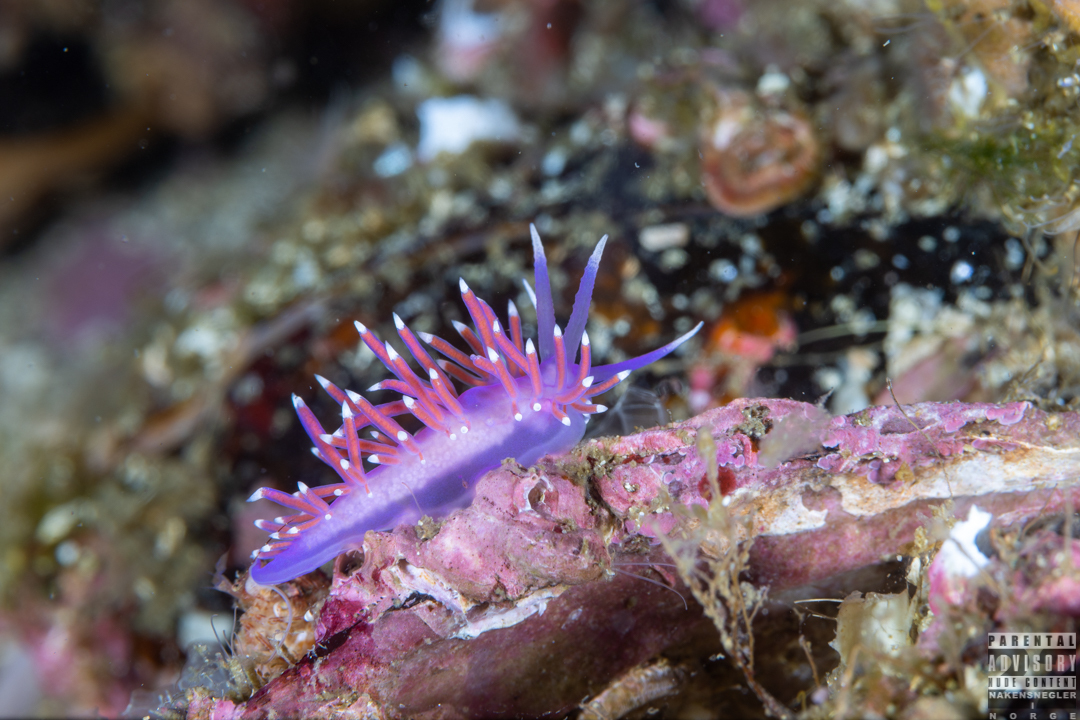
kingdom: Animalia
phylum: Mollusca
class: Gastropoda
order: Nudibranchia
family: Flabellinidae
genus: Edmundsella
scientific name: Edmundsella pedata
